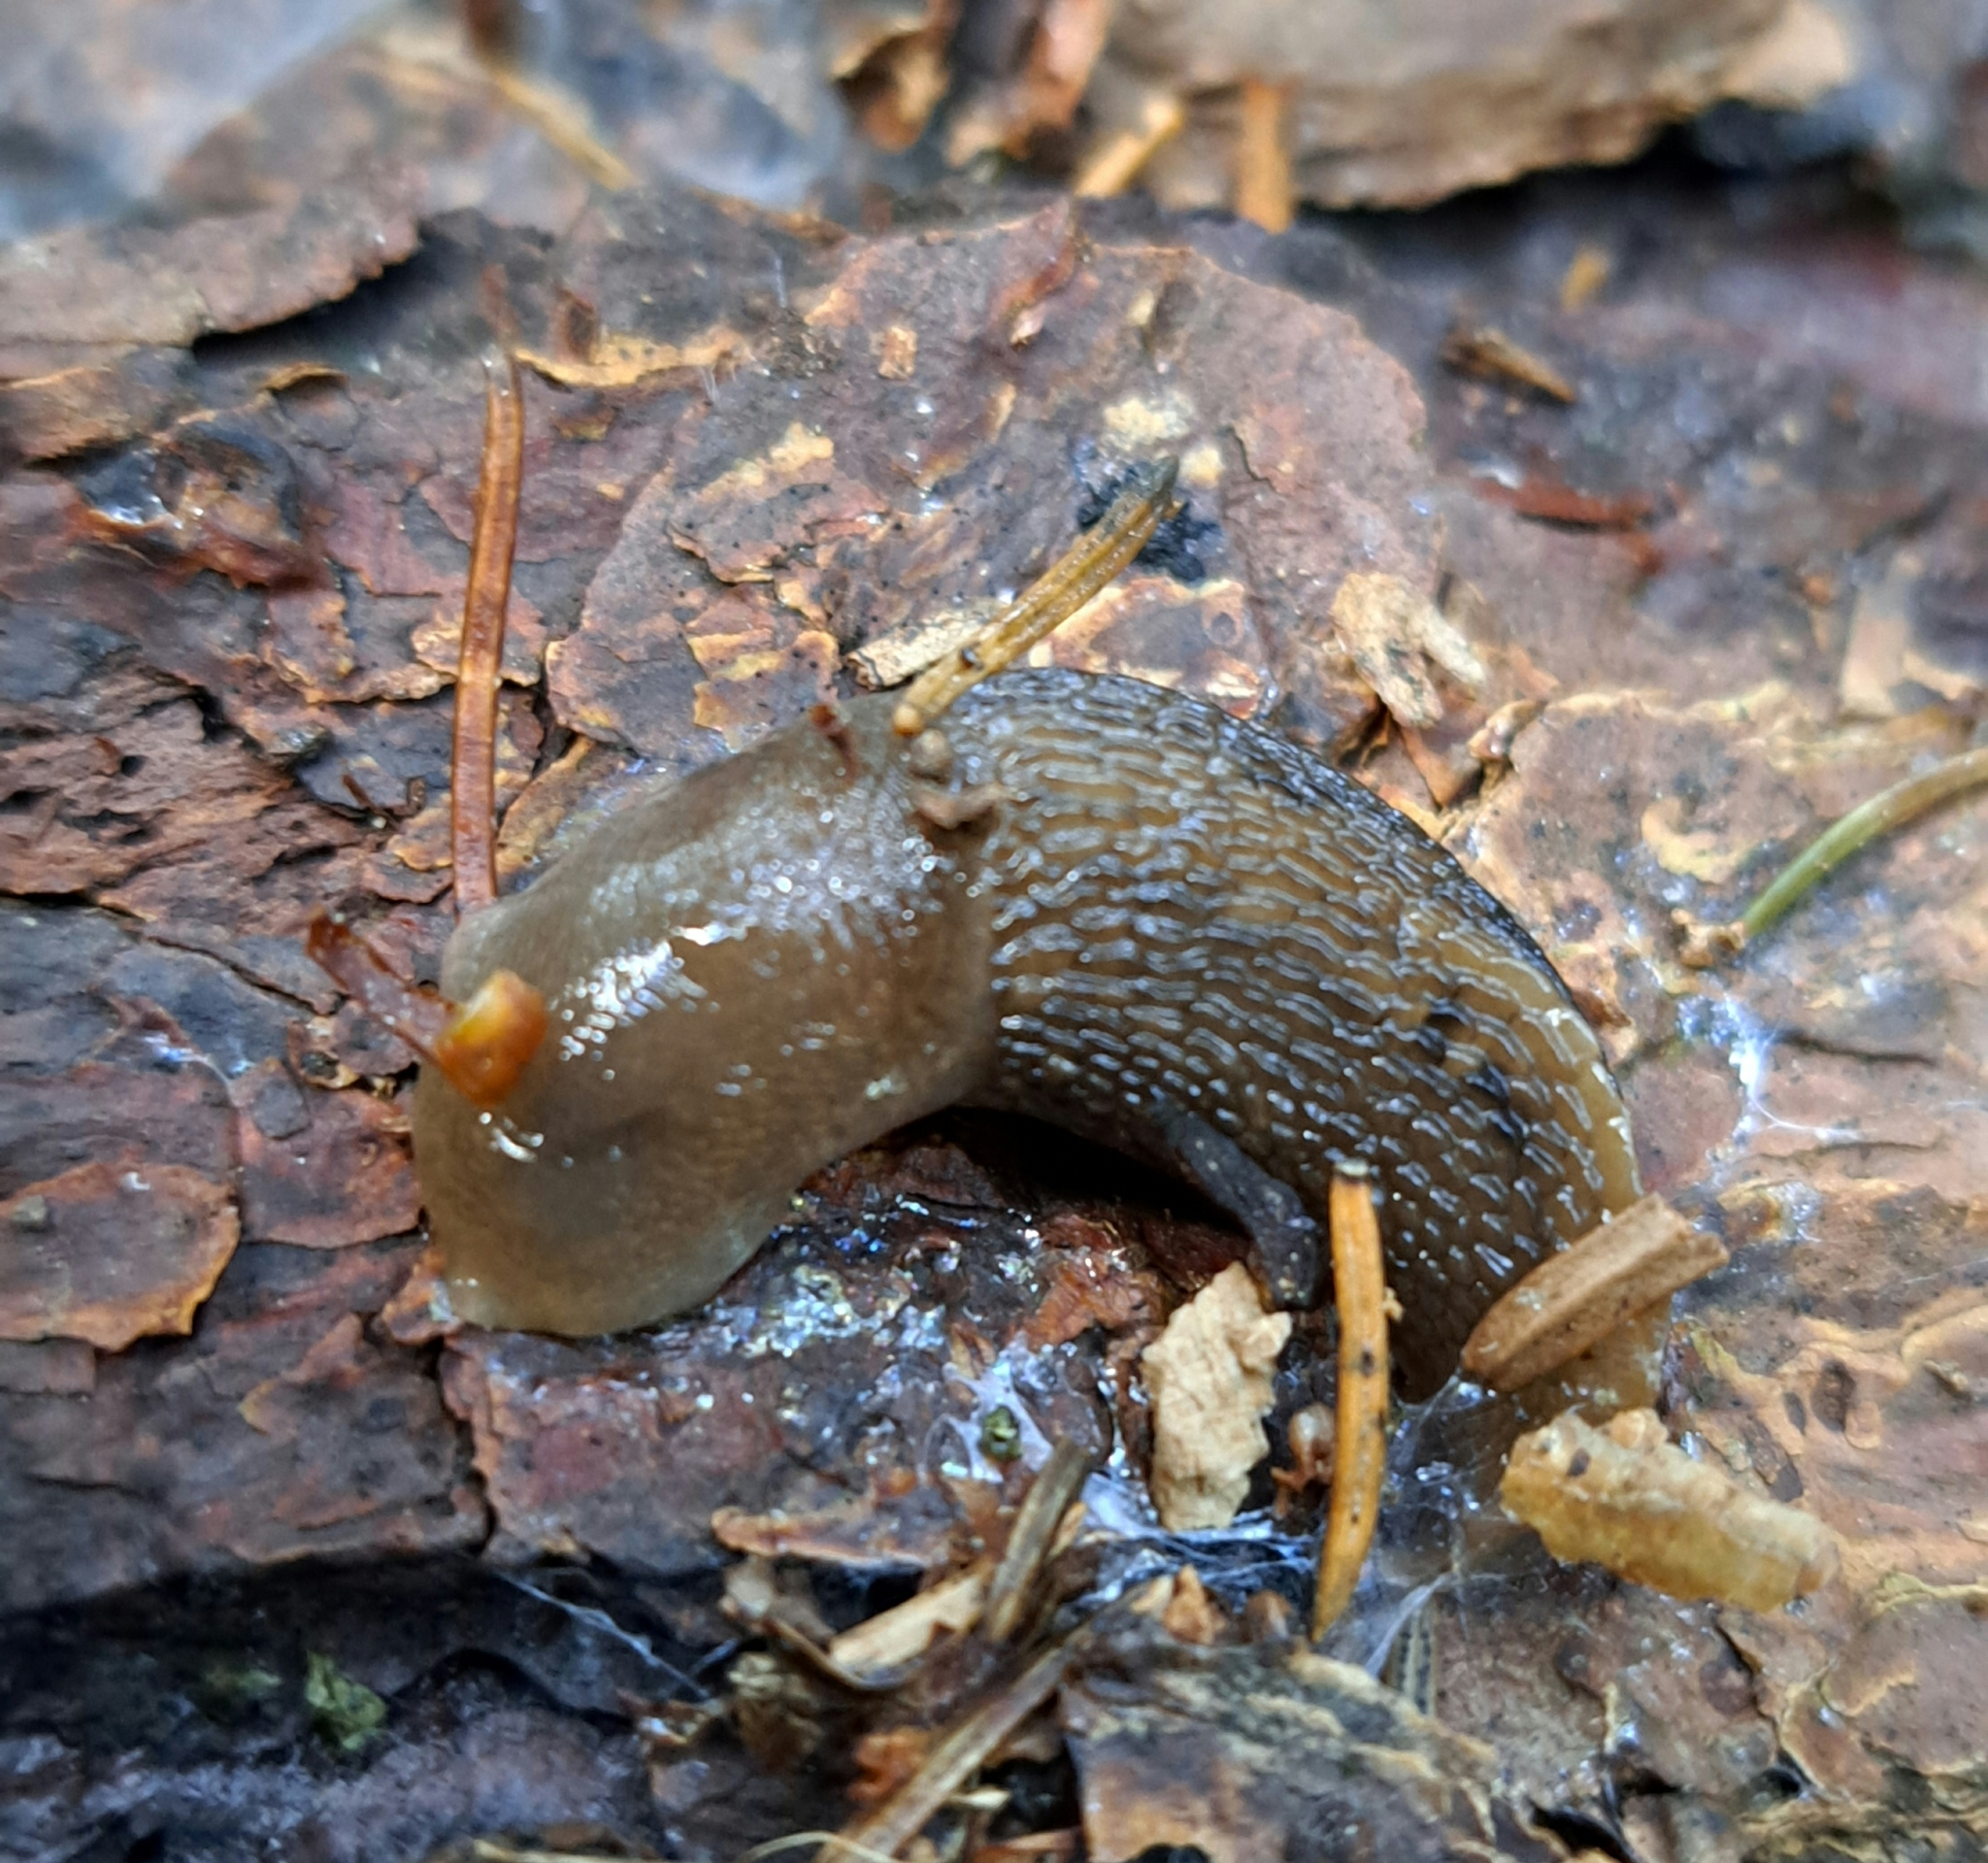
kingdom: Animalia
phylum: Mollusca
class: Gastropoda
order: Stylommatophora
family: Limacidae
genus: Limax
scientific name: Limax cinereoniger
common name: Ash-black slug
